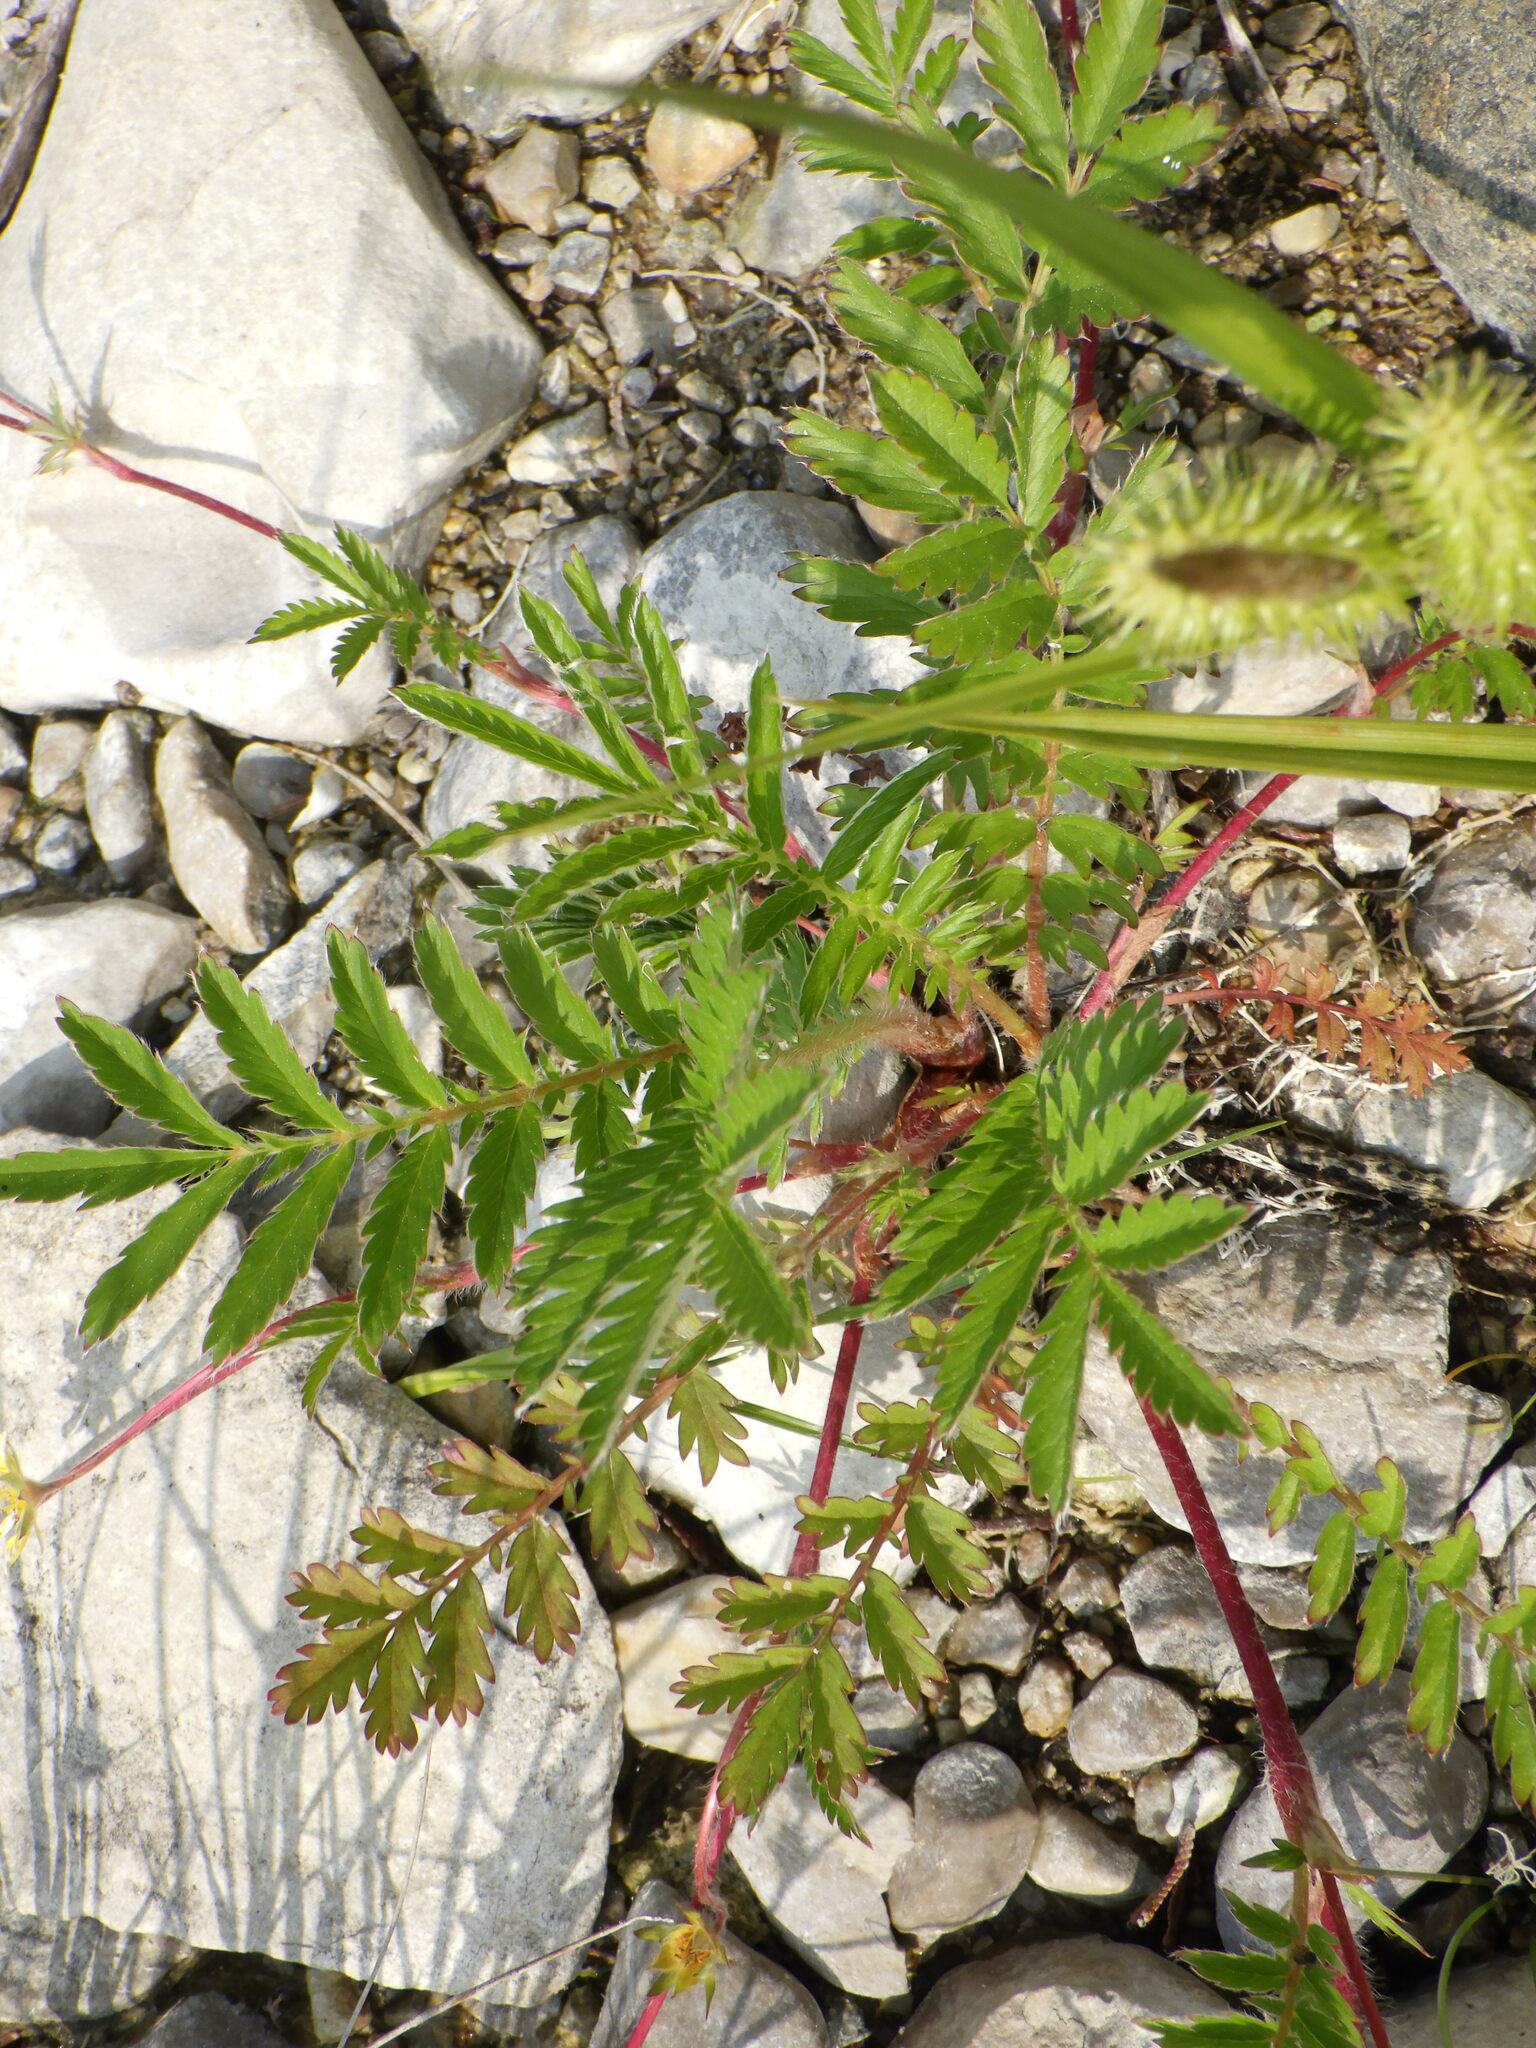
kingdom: Plantae
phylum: Tracheophyta
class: Magnoliopsida
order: Rosales
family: Rosaceae
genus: Argentina
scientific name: Argentina anserina
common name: Common silverweed
